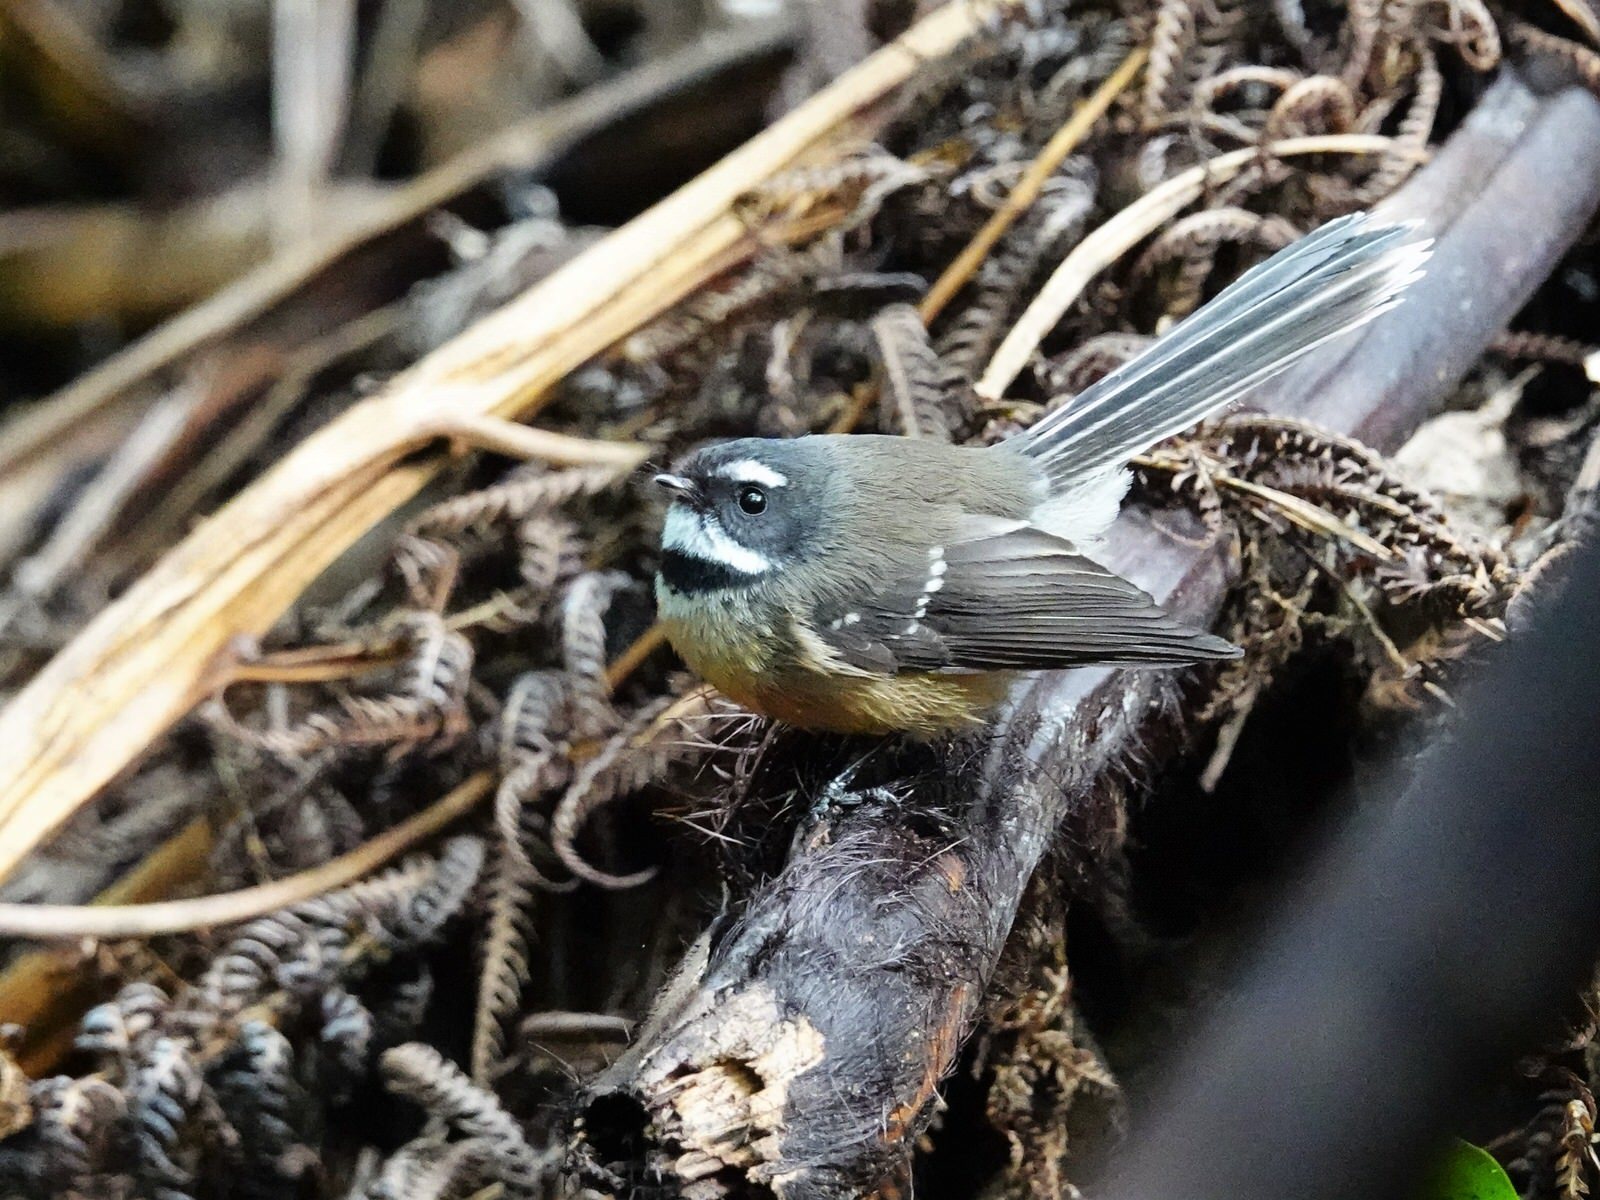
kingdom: Animalia
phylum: Chordata
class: Aves
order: Passeriformes
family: Rhipiduridae
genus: Rhipidura
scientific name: Rhipidura fuliginosa
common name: New zealand fantail
